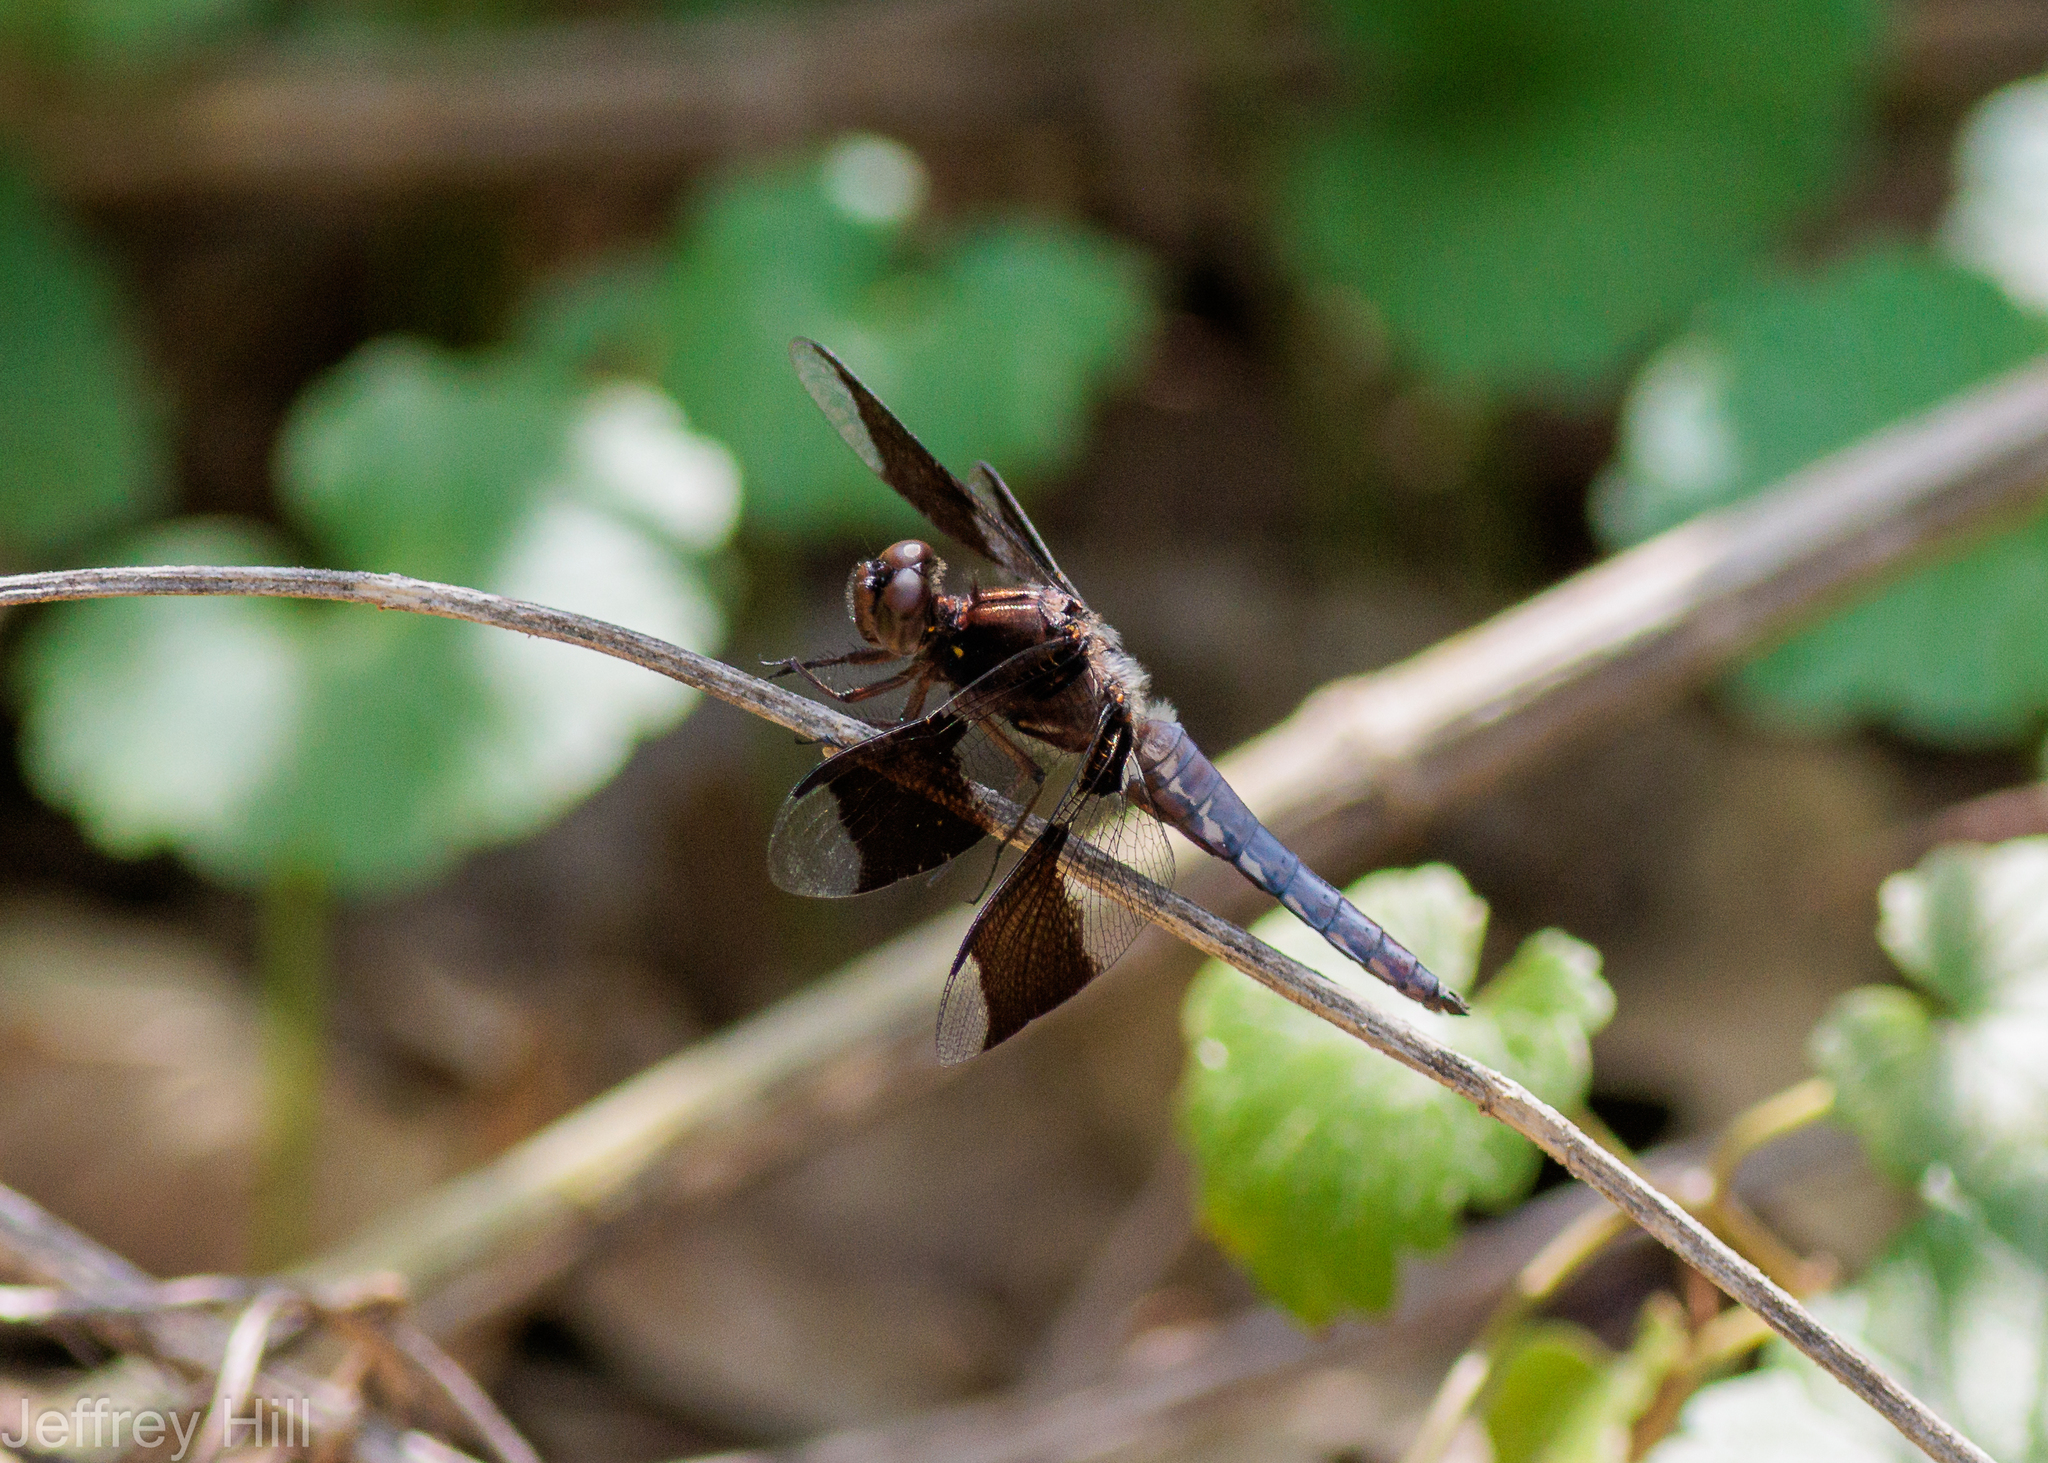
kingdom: Animalia
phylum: Arthropoda
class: Insecta
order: Odonata
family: Libellulidae
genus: Plathemis
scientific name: Plathemis lydia
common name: Common whitetail
